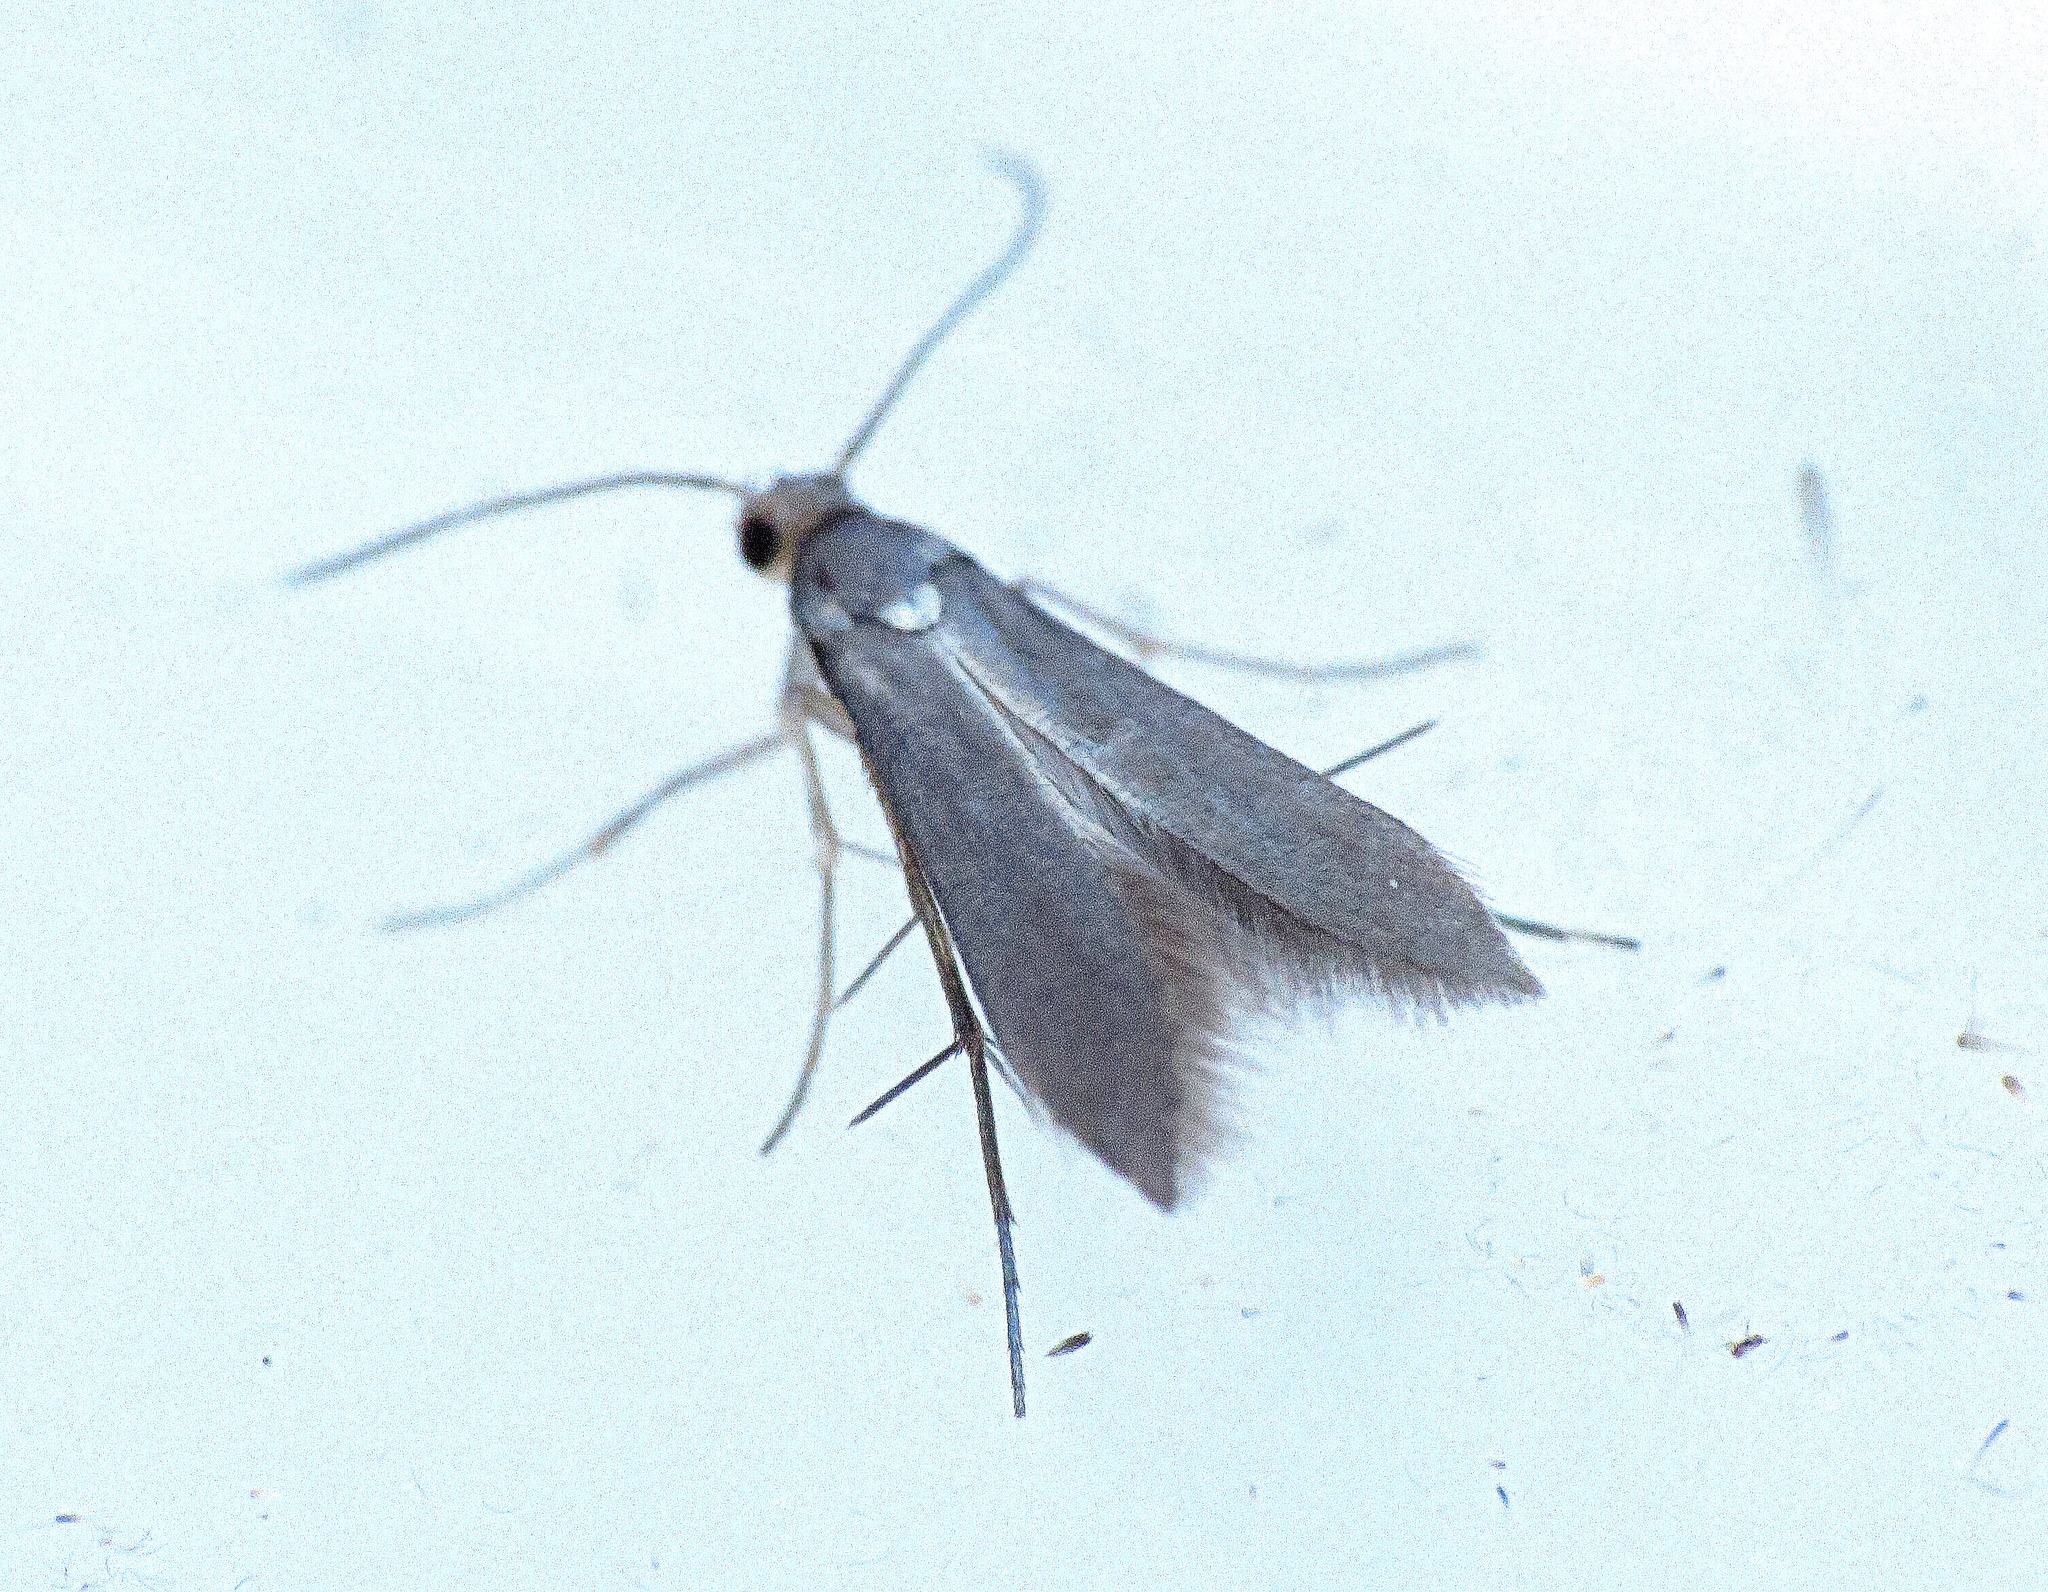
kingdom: Animalia
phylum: Arthropoda
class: Insecta
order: Lepidoptera
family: Schreckensteiniidae
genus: Schreckensteinia
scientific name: Schreckensteinia erythriella
